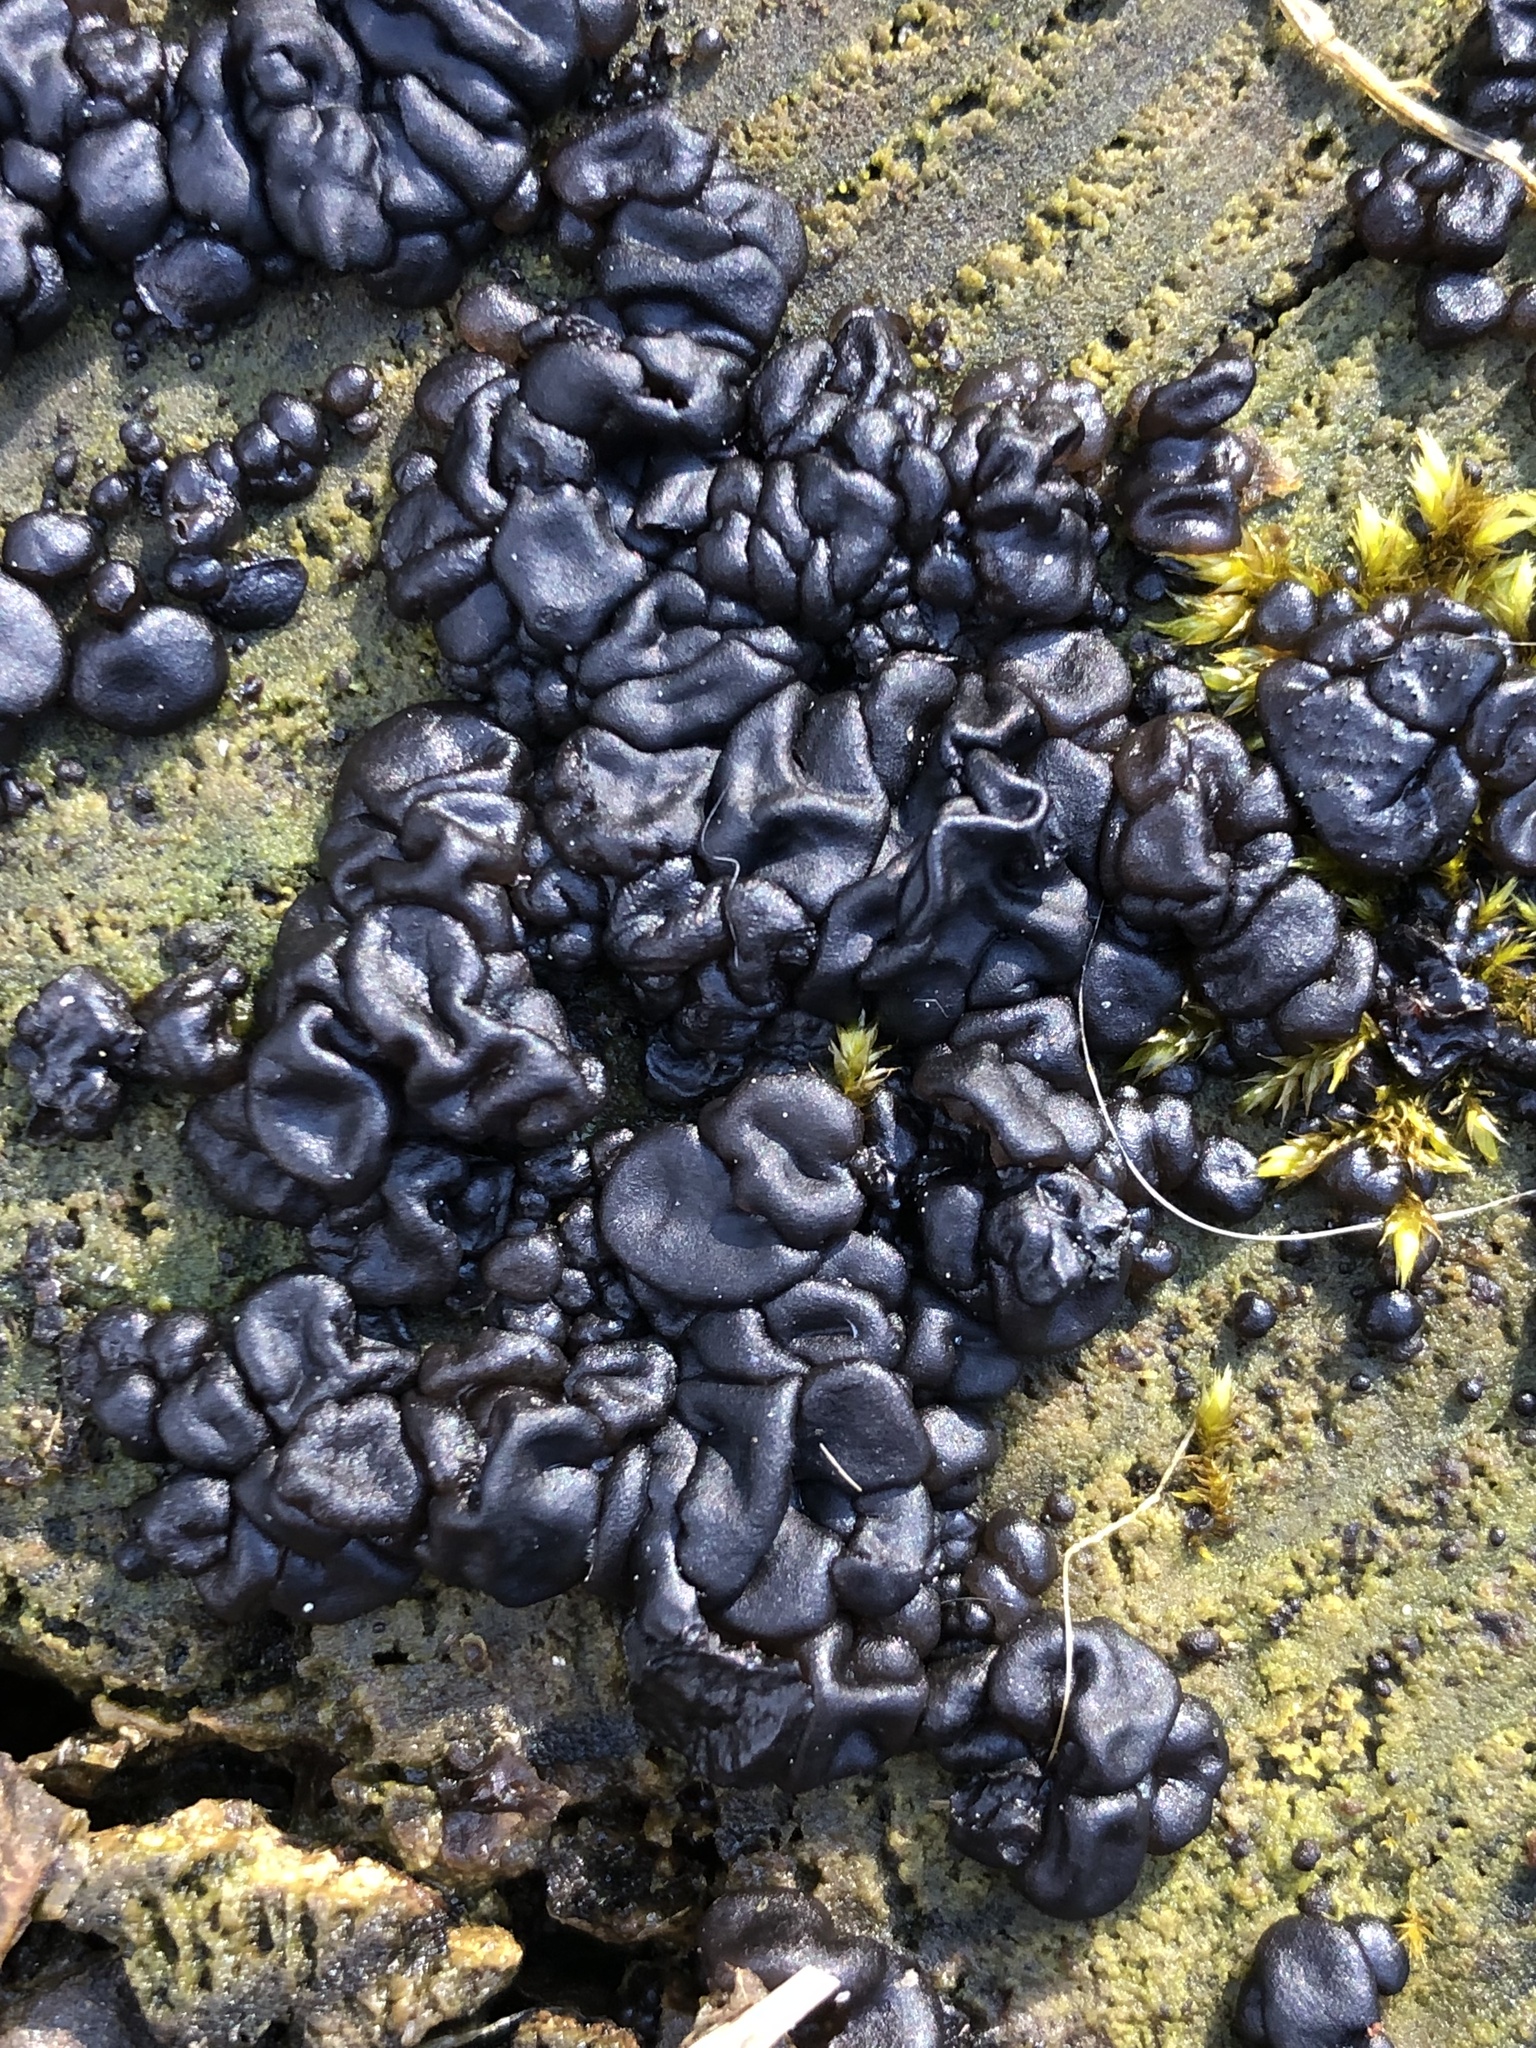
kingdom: Fungi
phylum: Basidiomycota
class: Agaricomycetes
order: Auriculariales
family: Auriculariaceae
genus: Exidia
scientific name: Exidia nigricans
